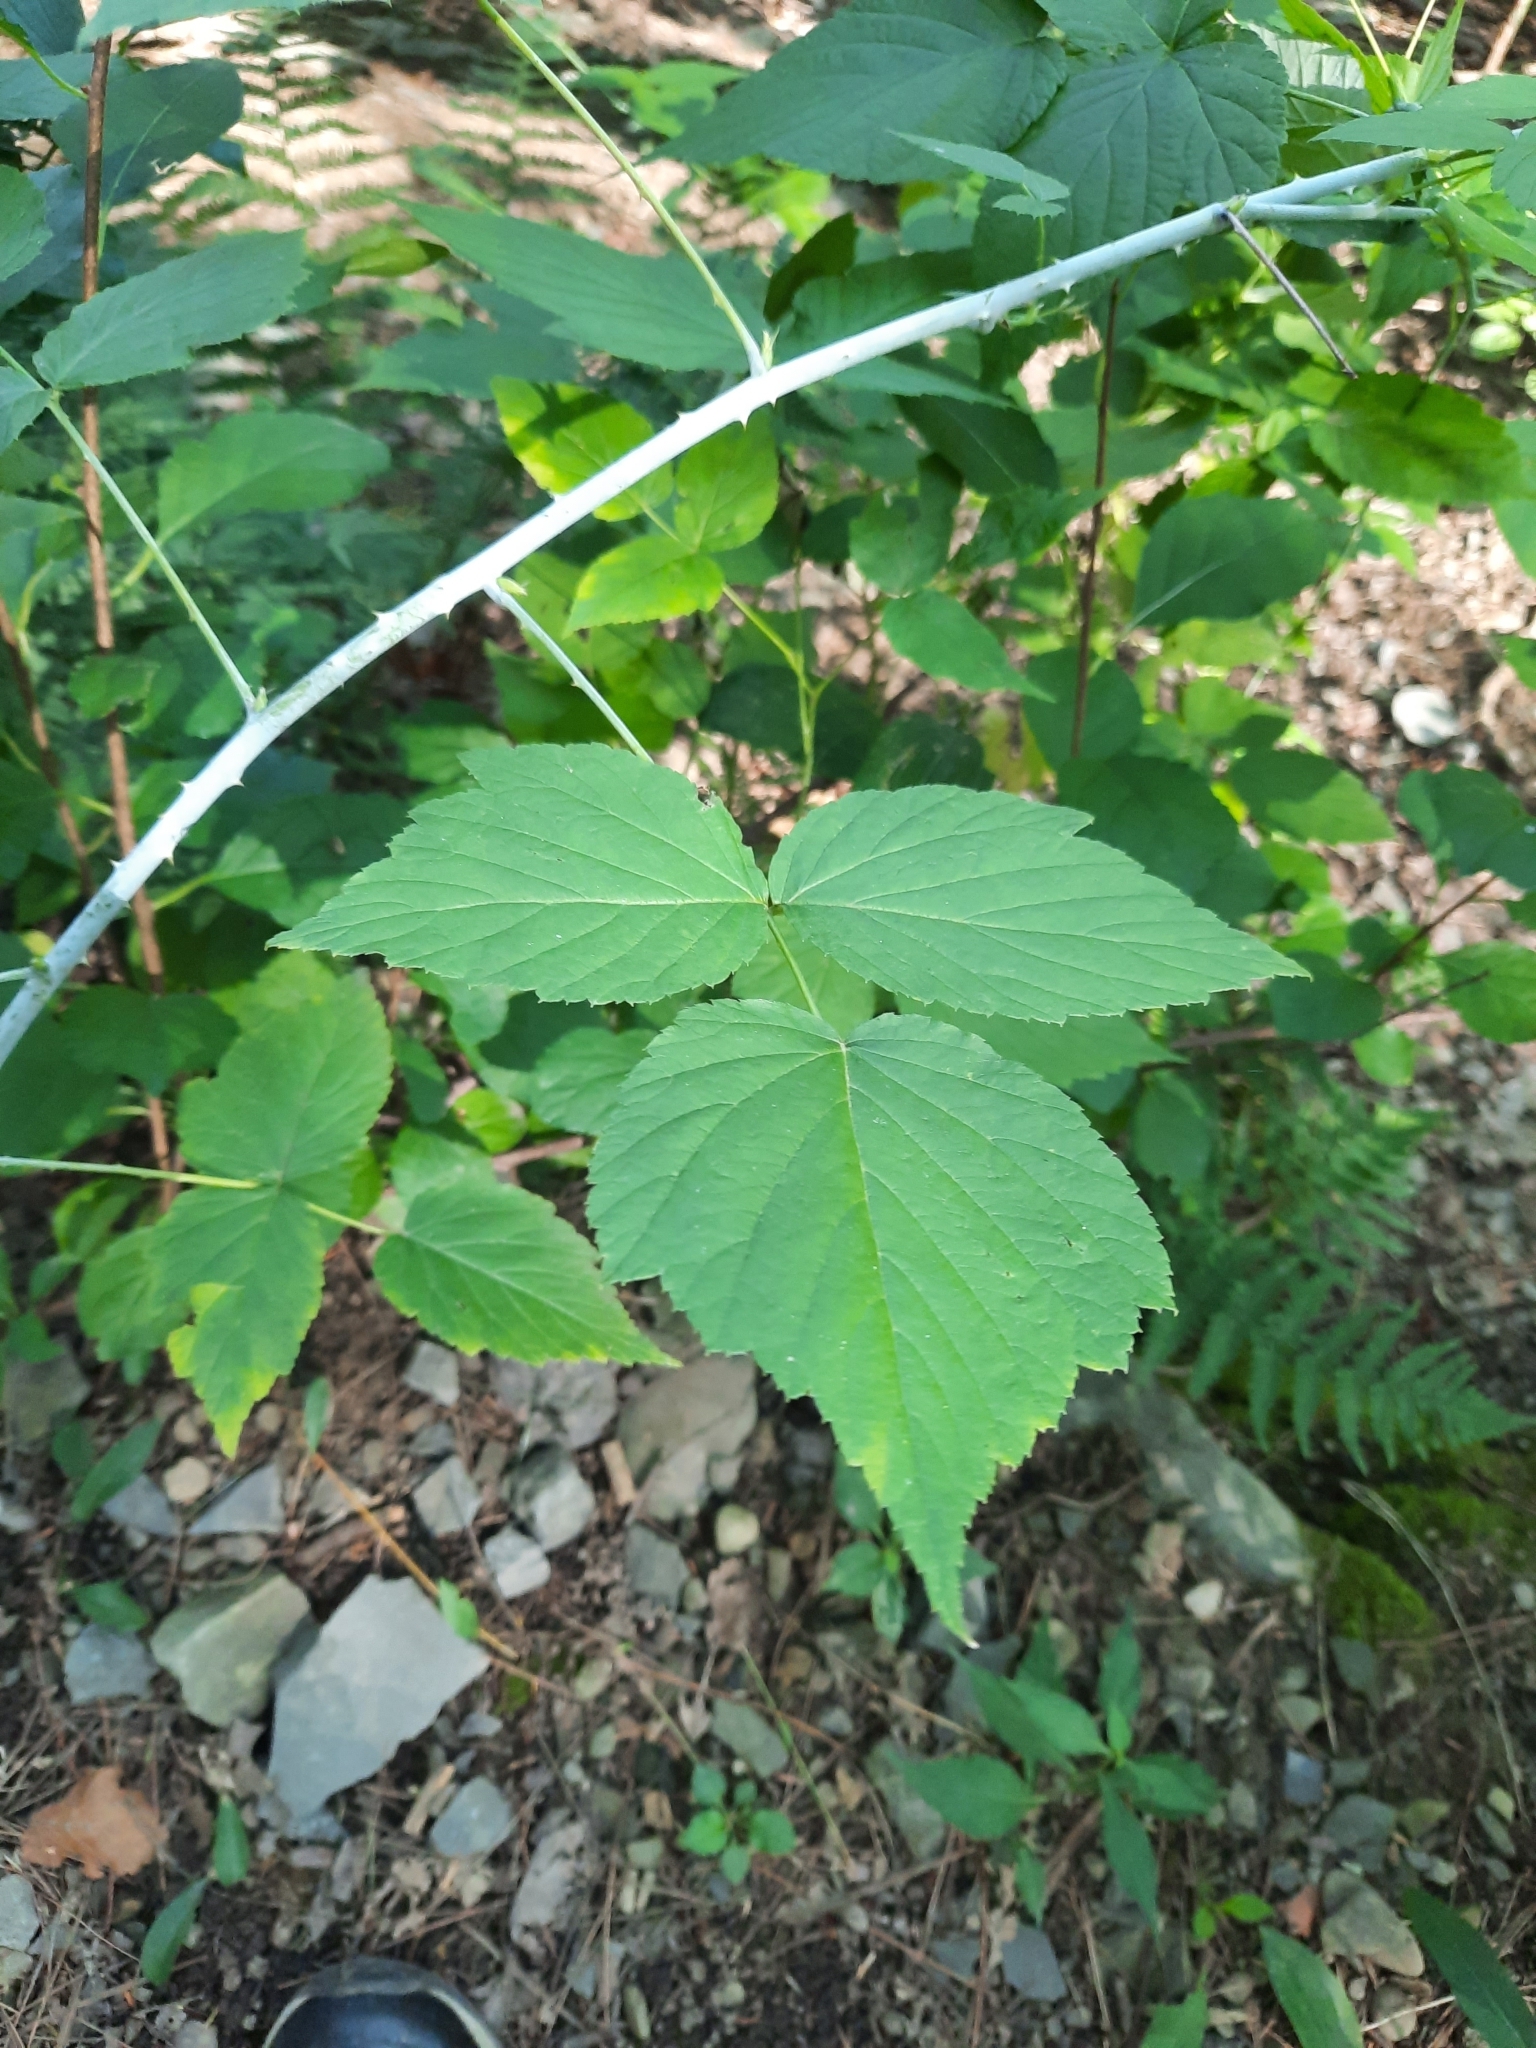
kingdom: Plantae
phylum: Tracheophyta
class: Magnoliopsida
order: Rosales
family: Rosaceae
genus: Rubus
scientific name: Rubus occidentalis
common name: Black raspberry
